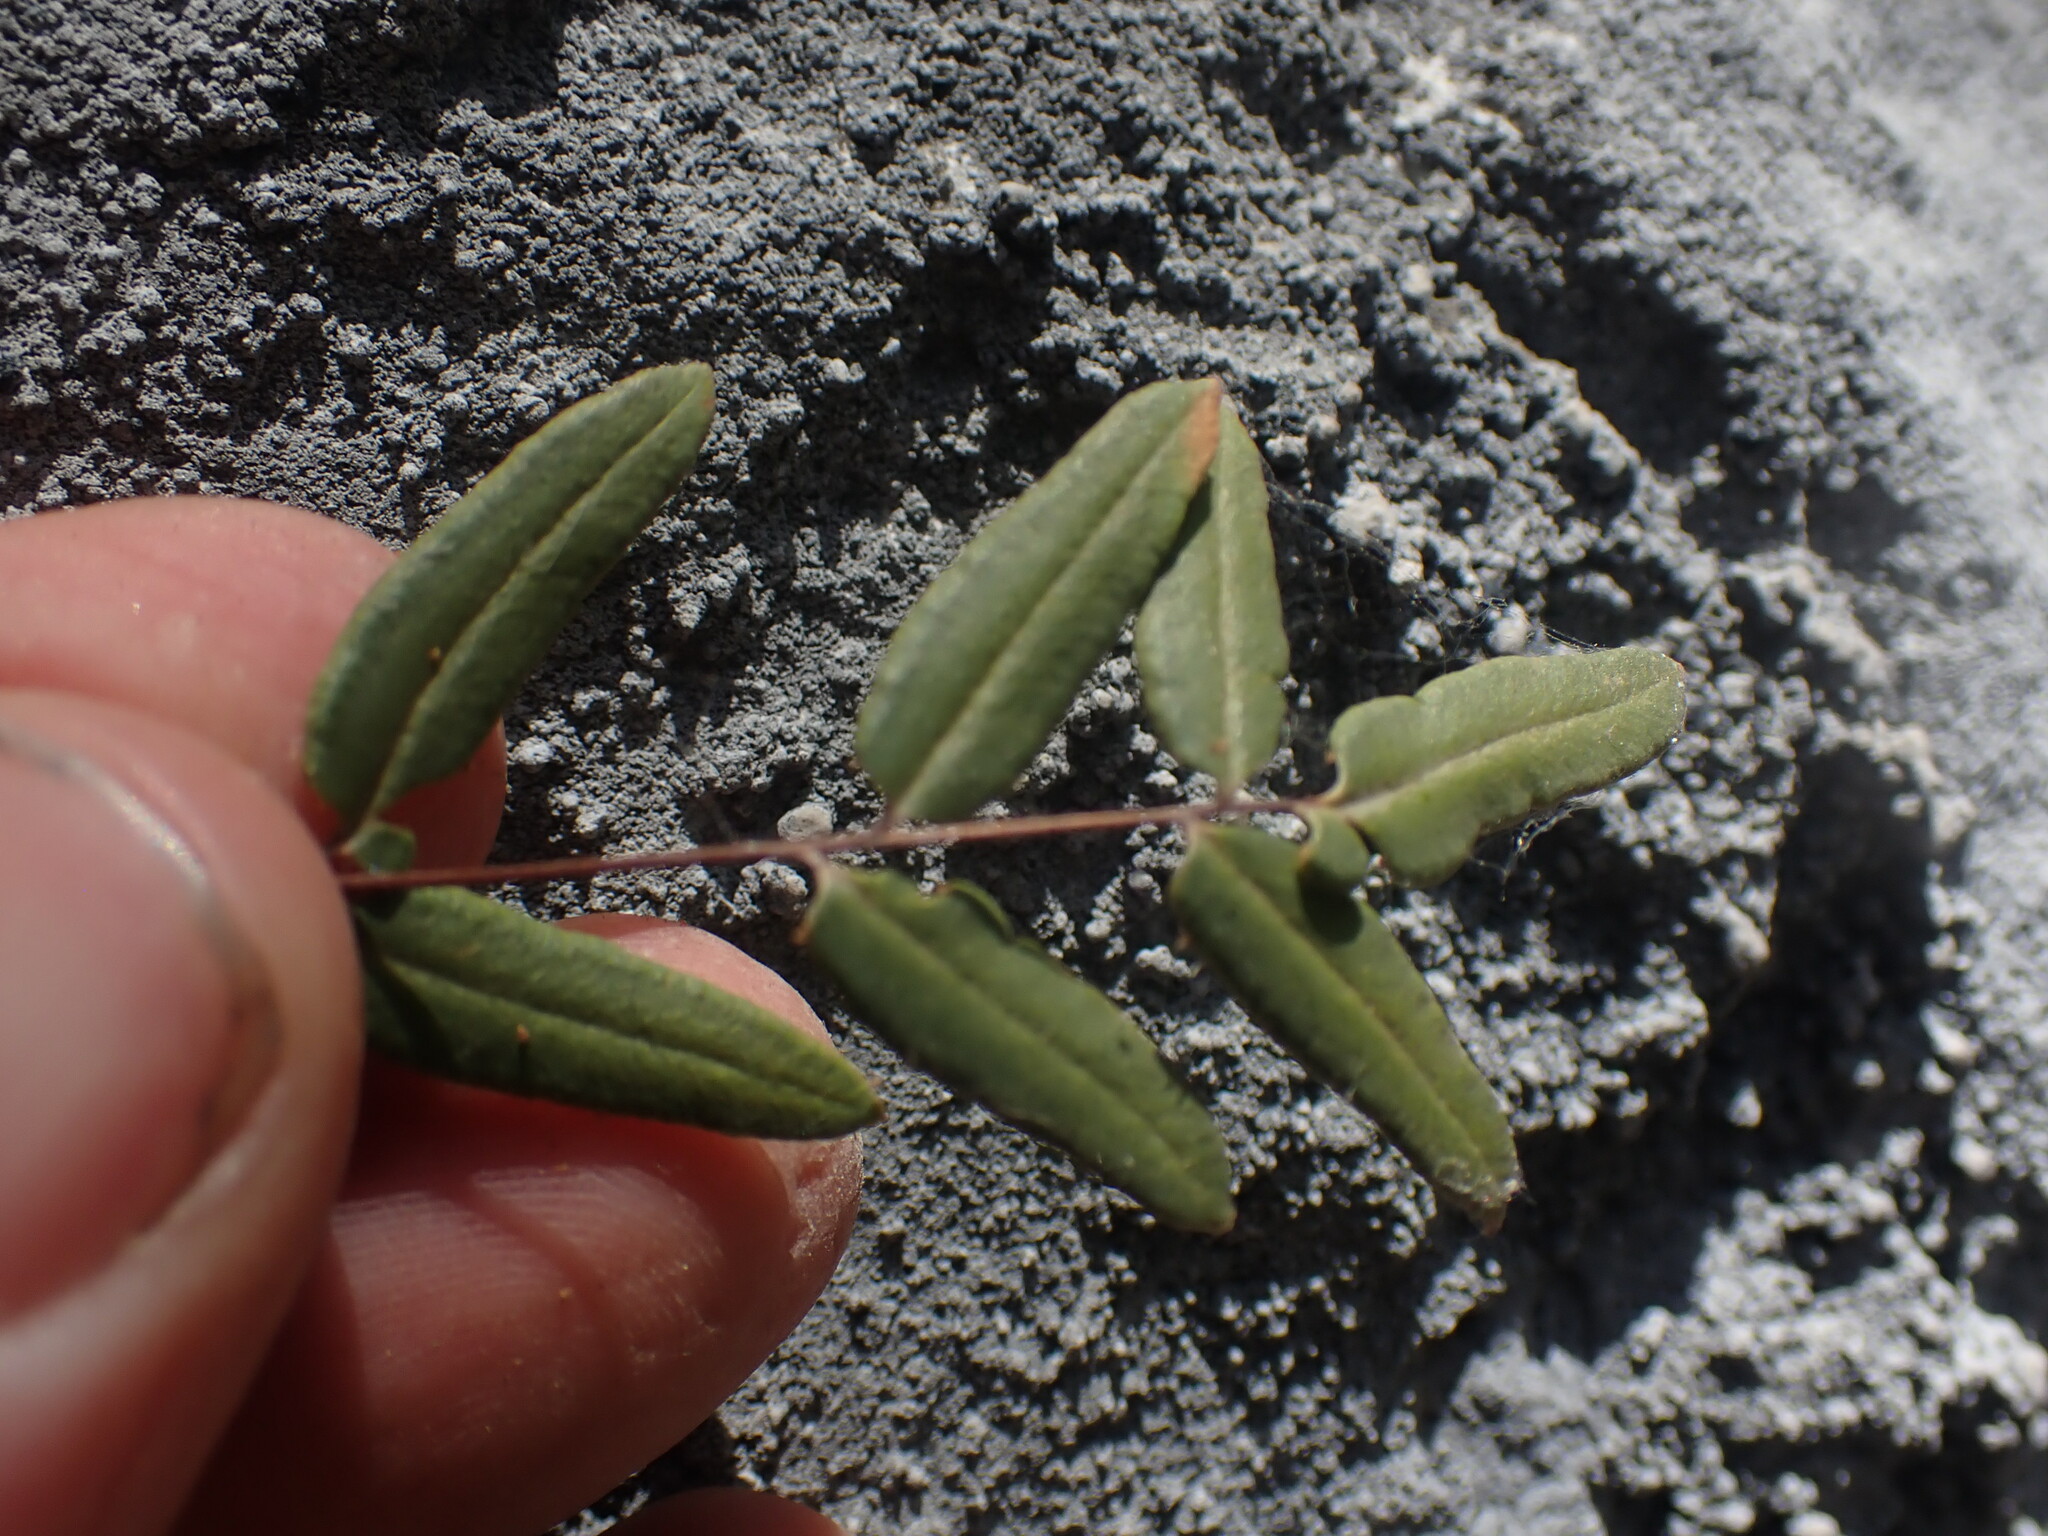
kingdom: Plantae
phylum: Tracheophyta
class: Polypodiopsida
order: Polypodiales
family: Pteridaceae
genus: Pellaea
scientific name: Pellaea glabella
